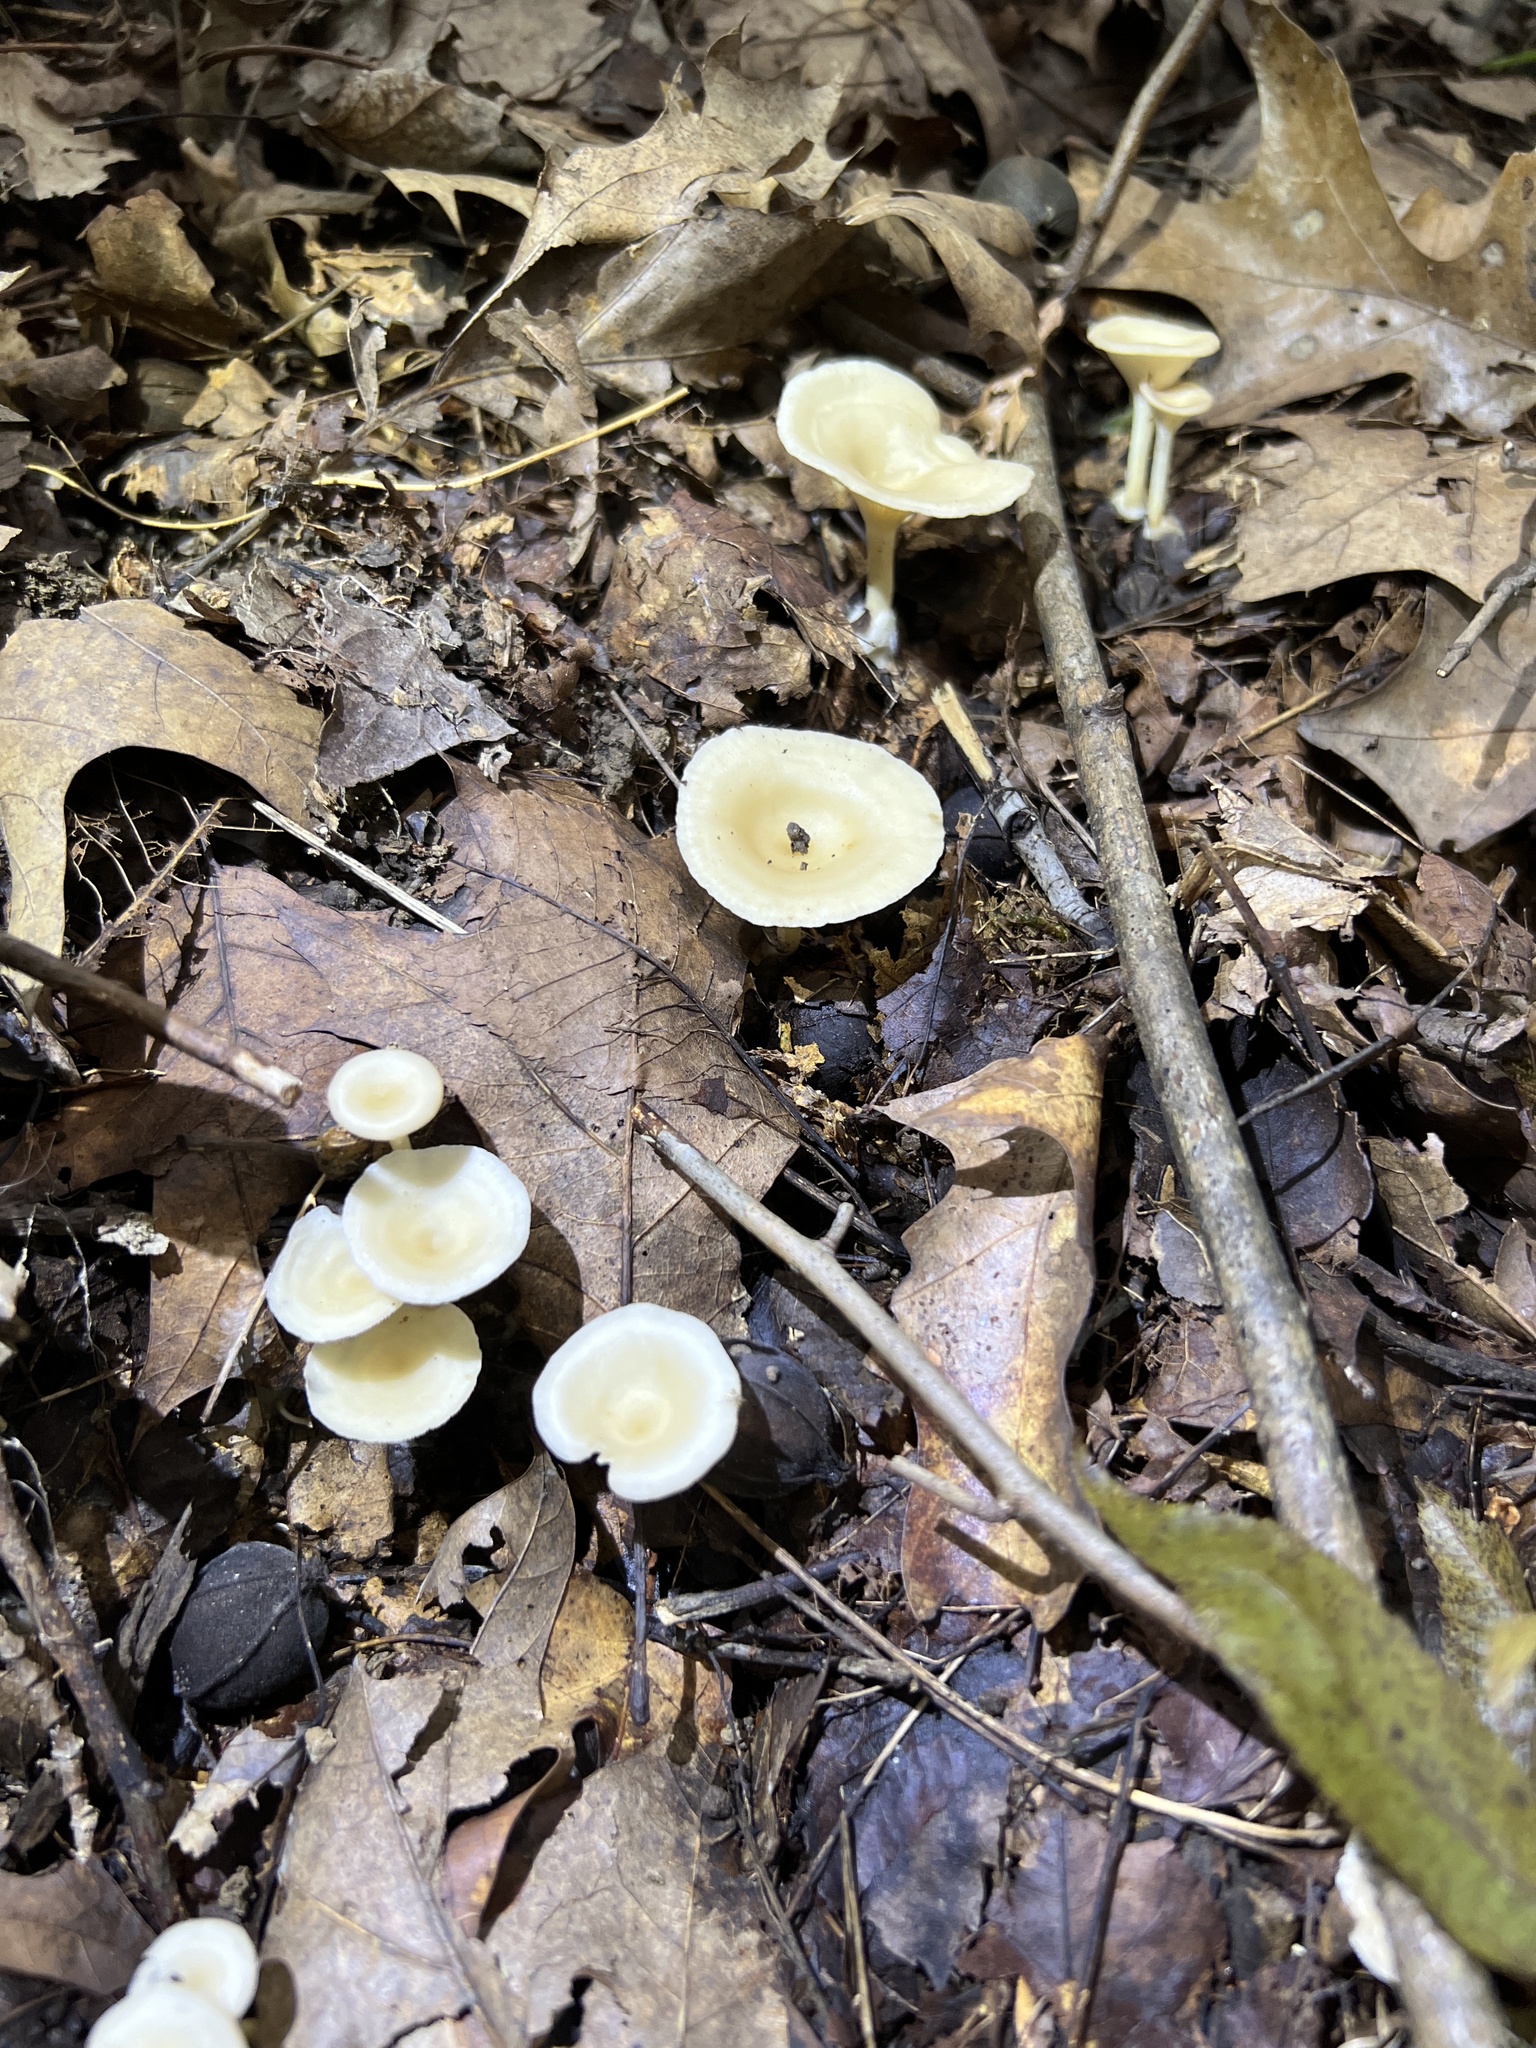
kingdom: Fungi
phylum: Basidiomycota
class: Agaricomycetes
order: Agaricales
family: Tricholomataceae
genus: Singerocybe
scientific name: Singerocybe adirondackensis
